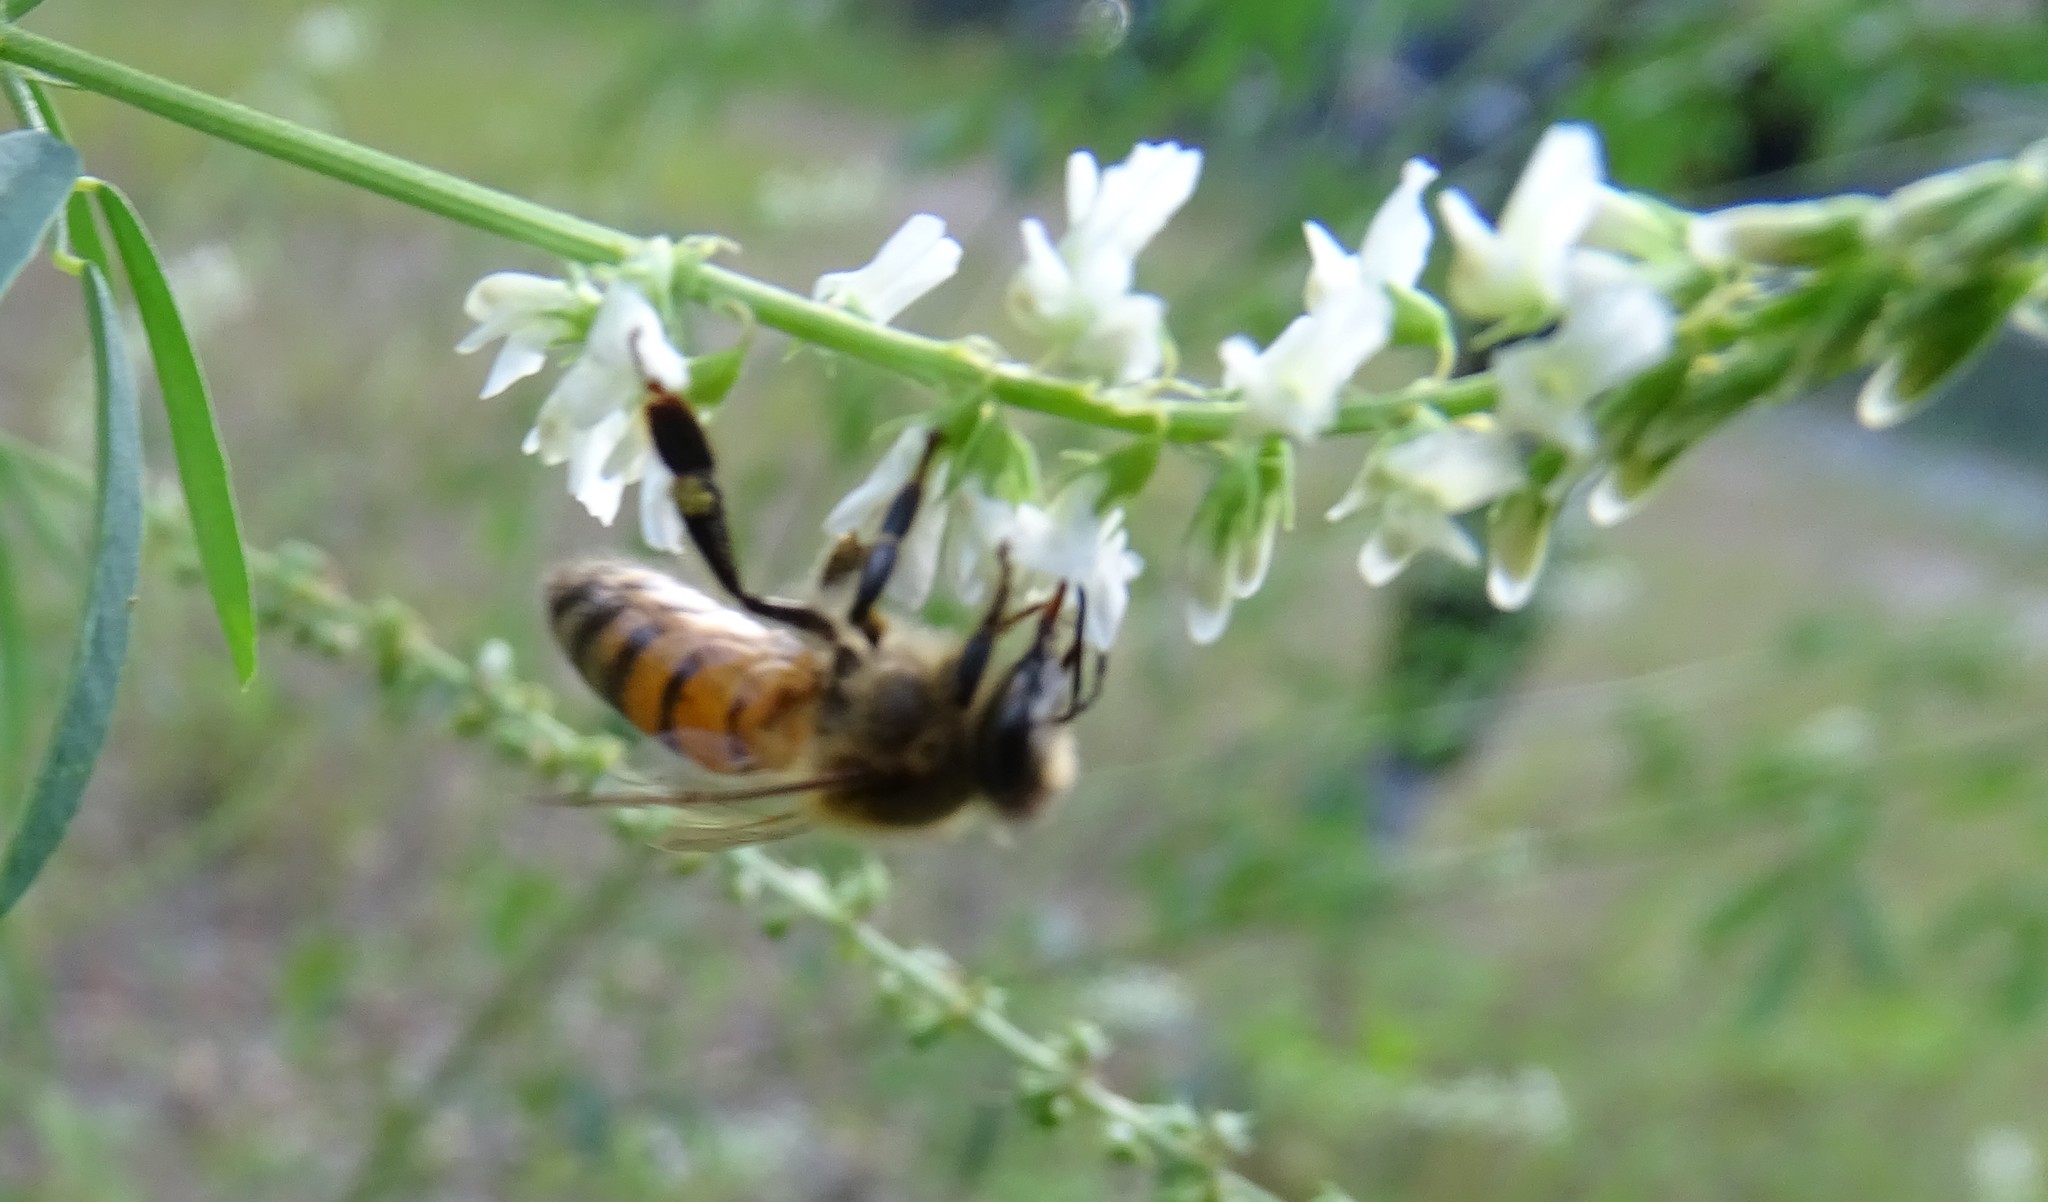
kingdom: Animalia
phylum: Arthropoda
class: Insecta
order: Hymenoptera
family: Apidae
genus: Apis
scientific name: Apis mellifera
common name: Honey bee
